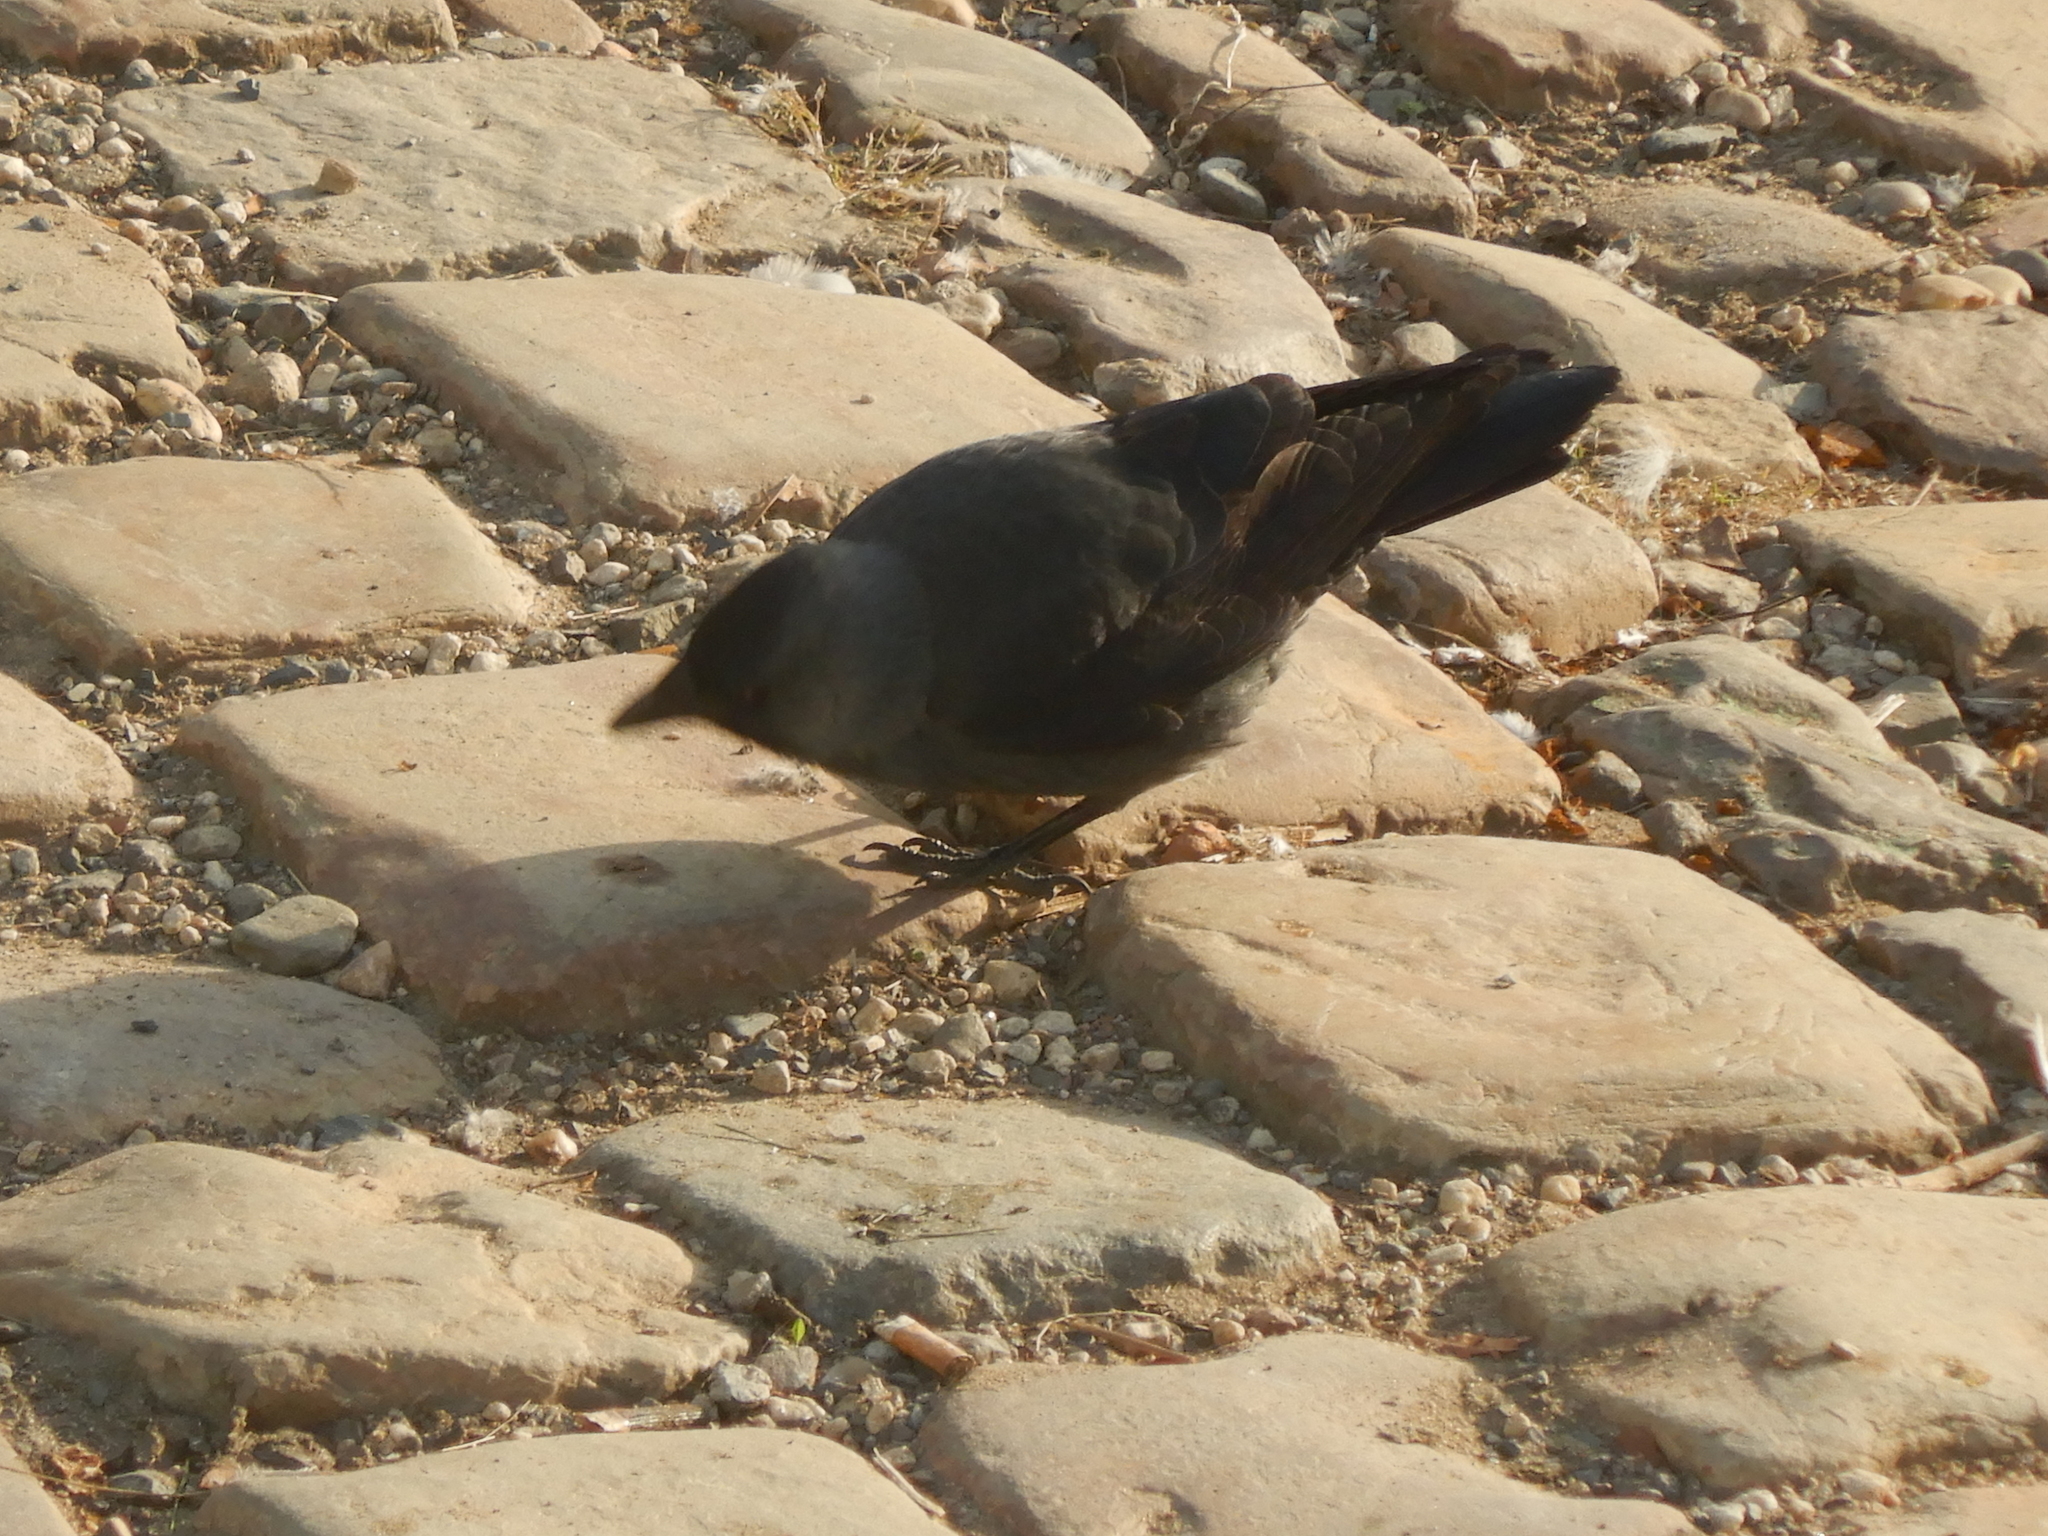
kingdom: Animalia
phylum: Chordata
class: Aves
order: Passeriformes
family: Corvidae
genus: Coloeus
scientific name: Coloeus monedula
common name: Western jackdaw
